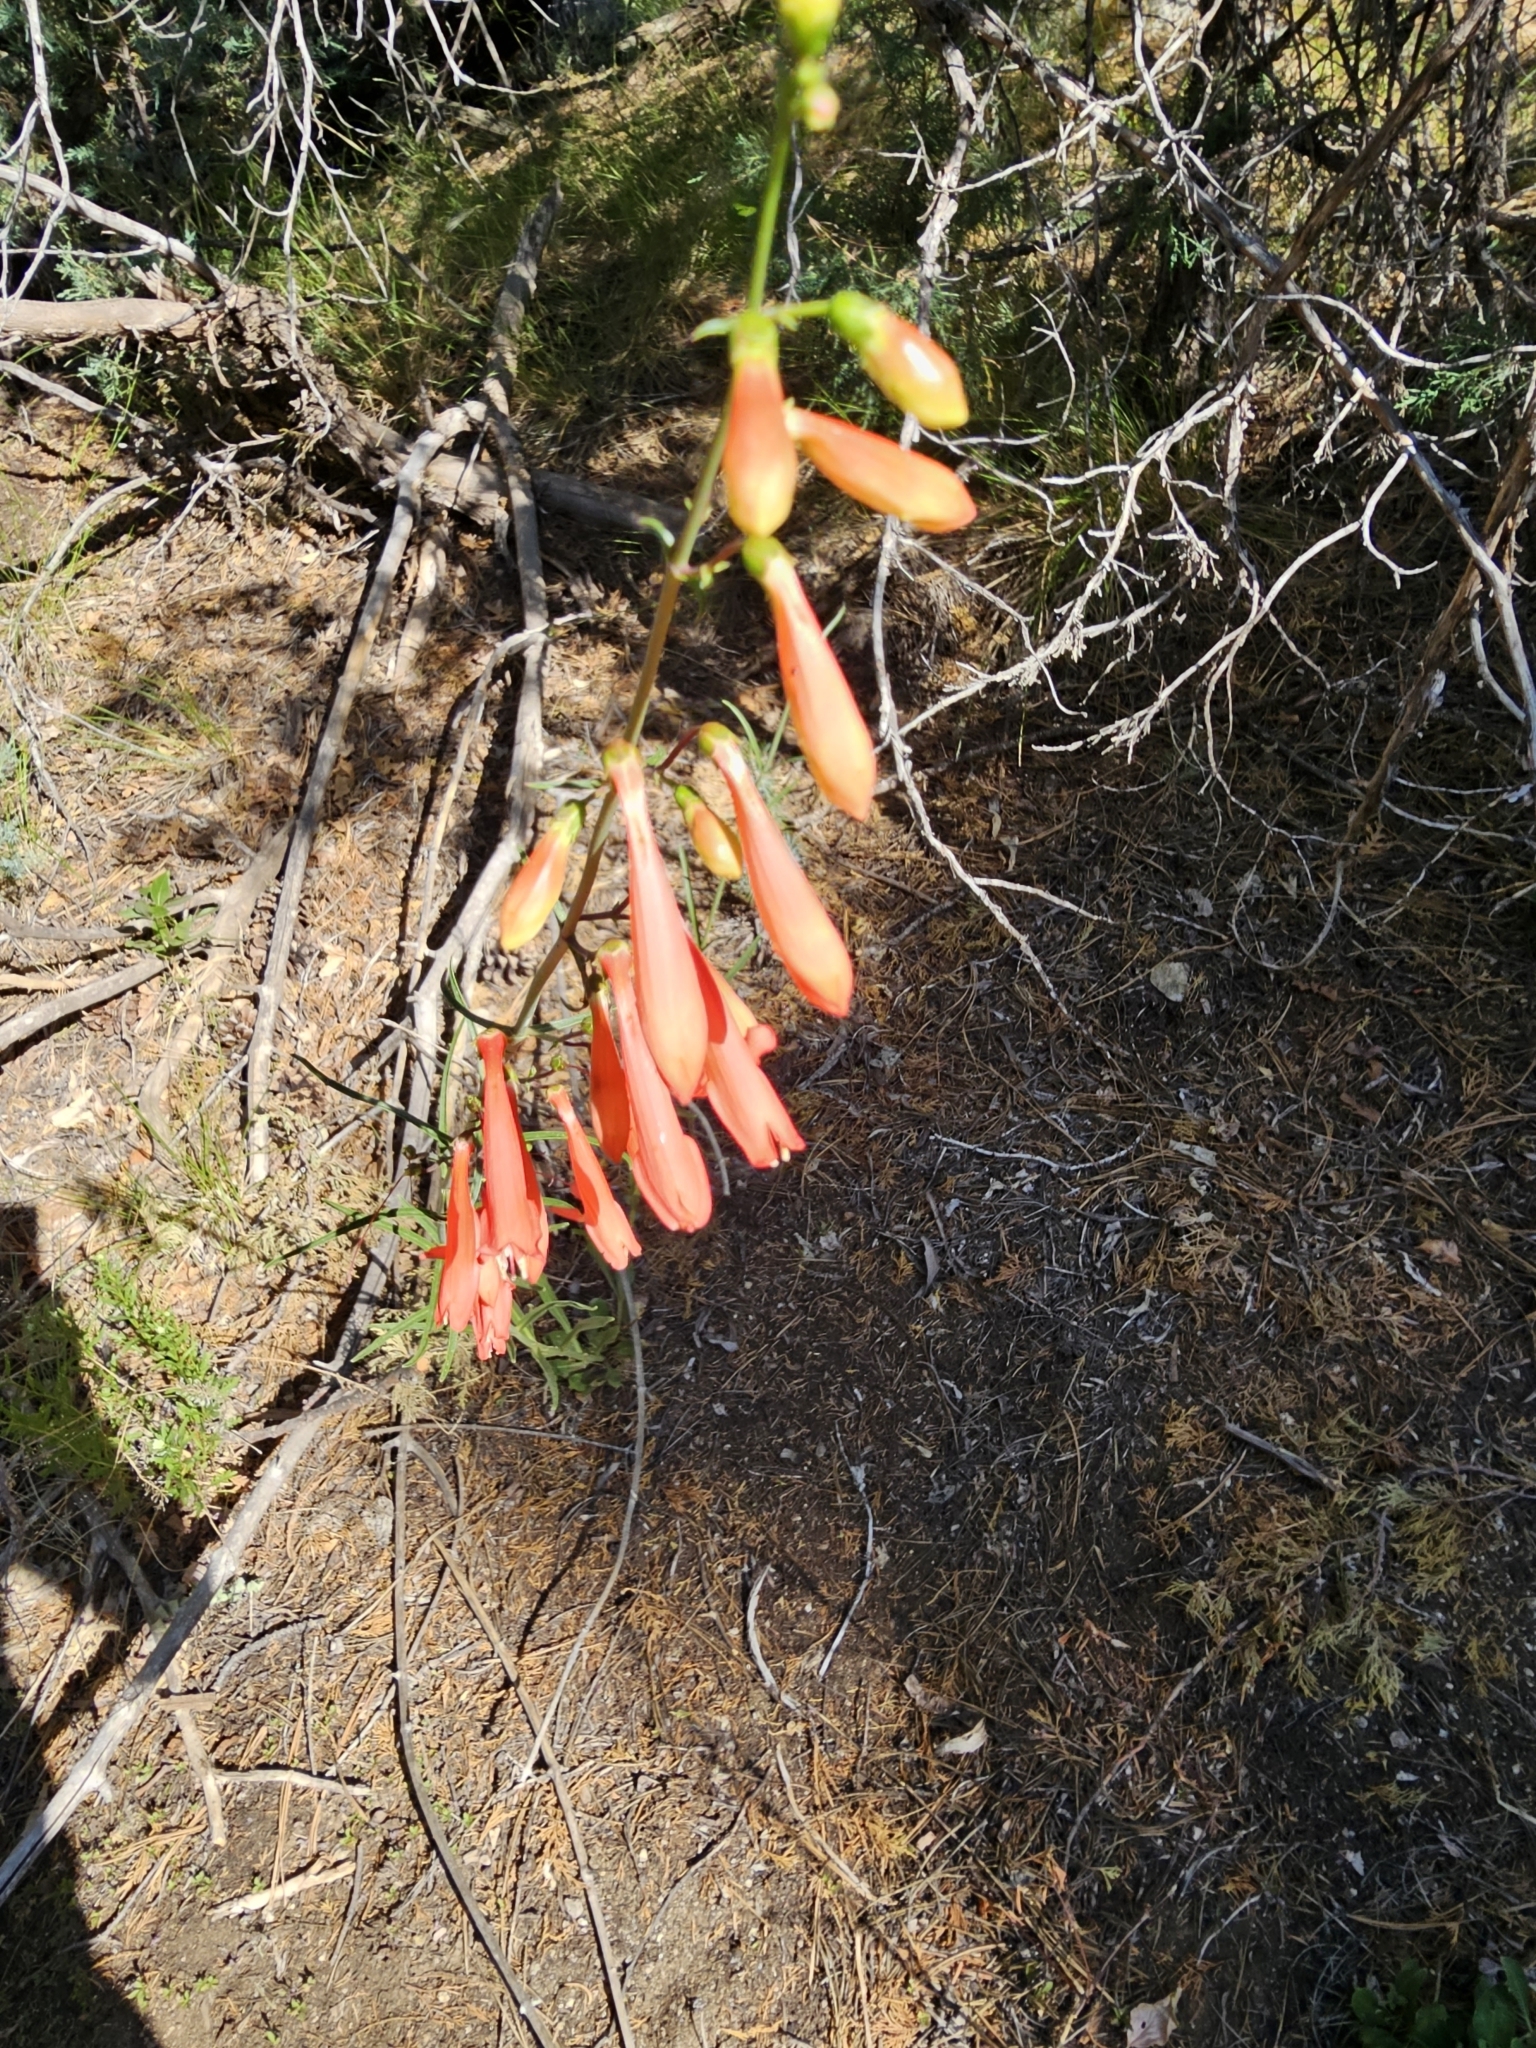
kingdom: Plantae
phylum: Tracheophyta
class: Magnoliopsida
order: Lamiales
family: Plantaginaceae
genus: Penstemon
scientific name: Penstemon barbatus
